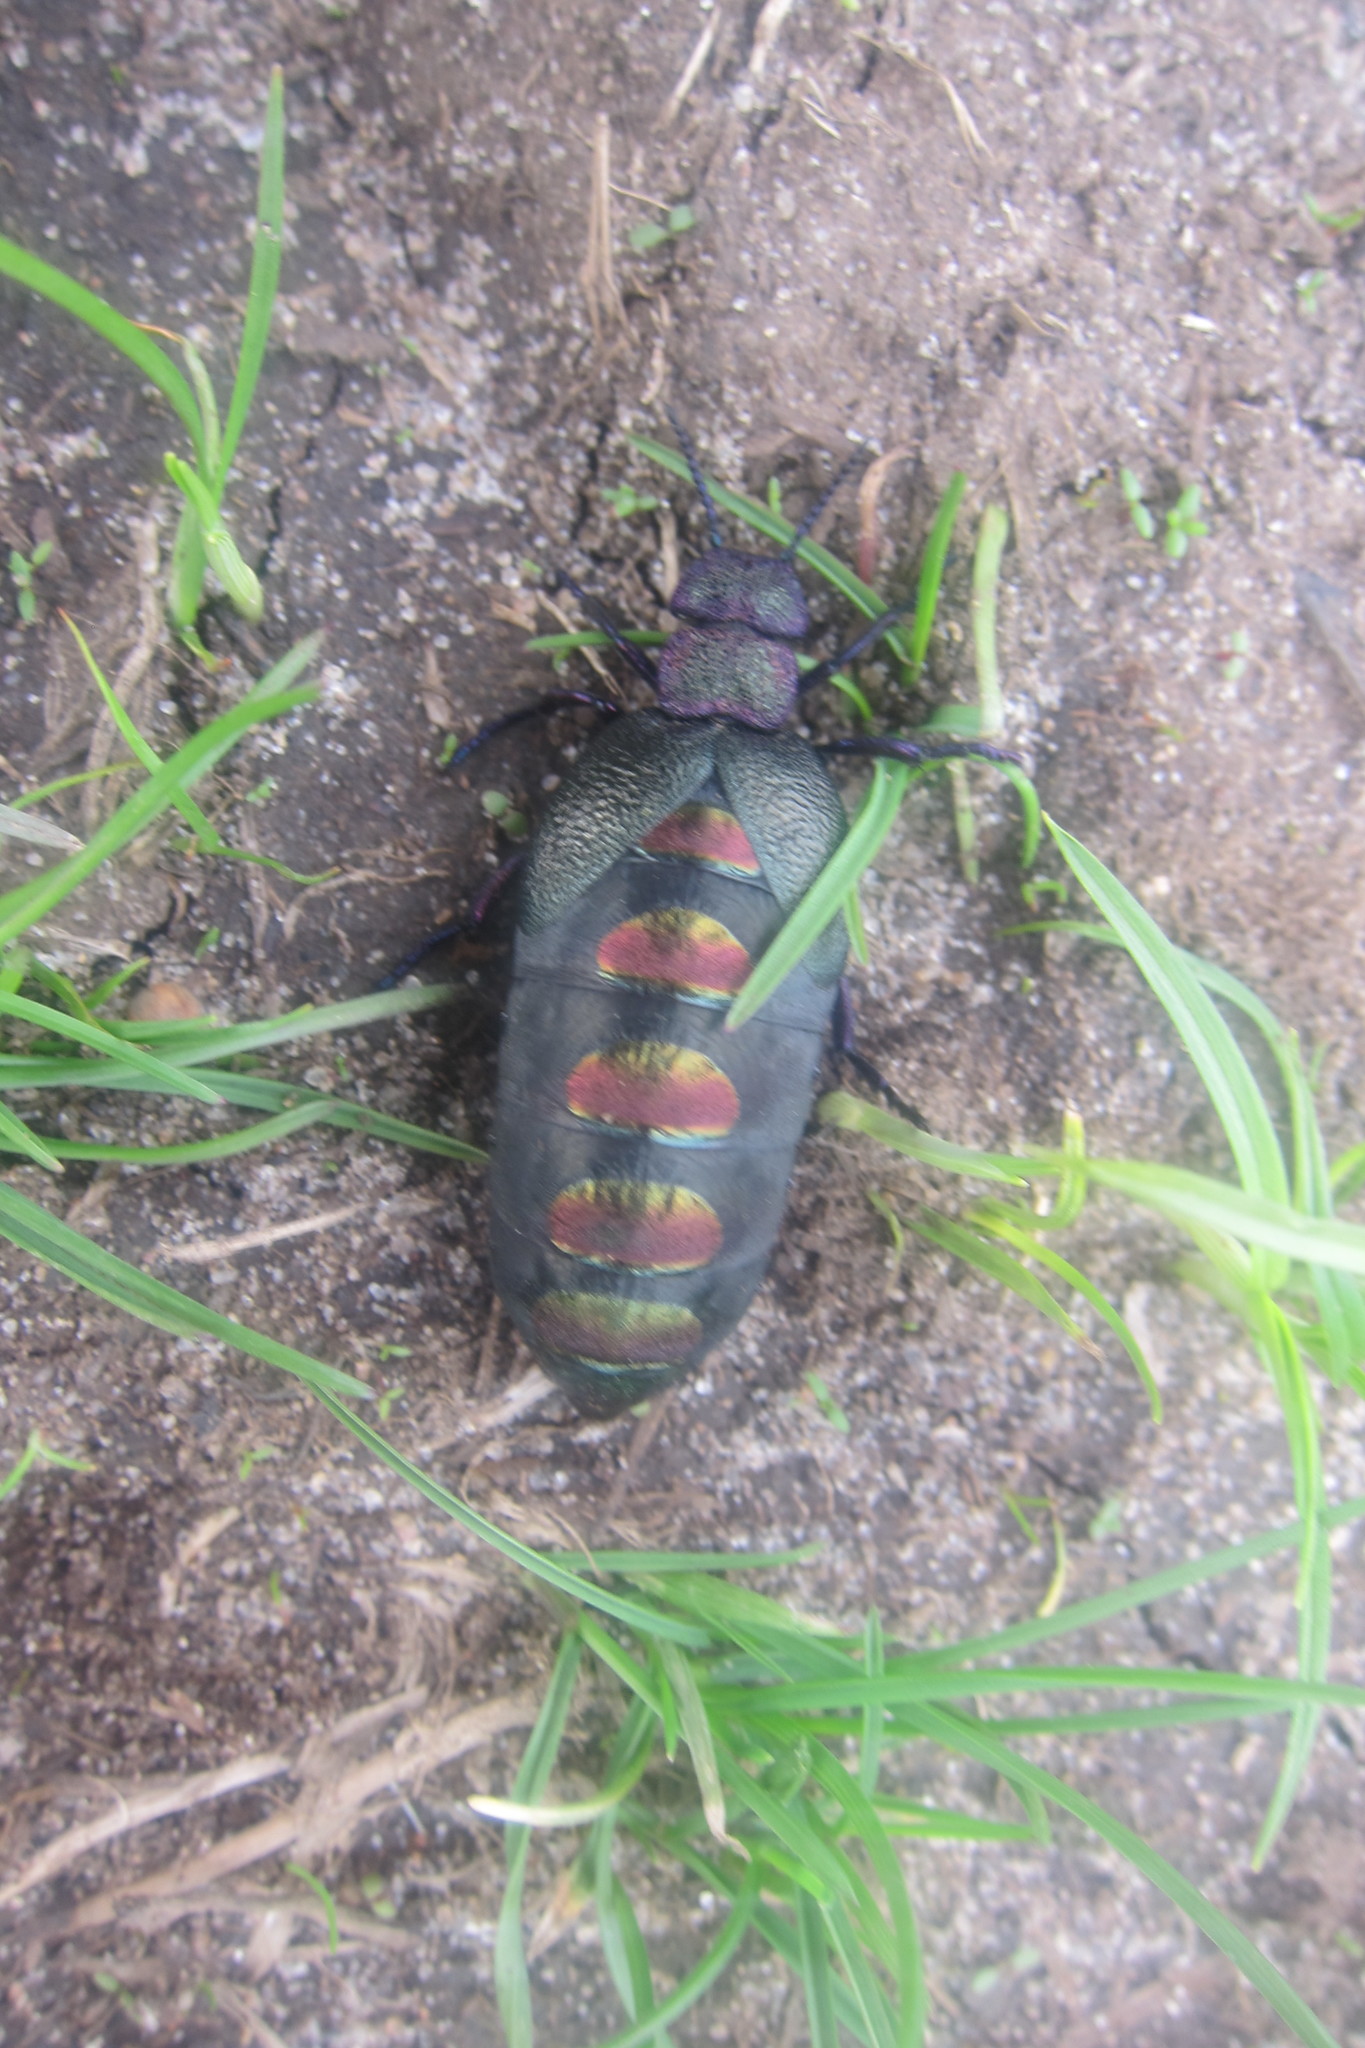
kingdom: Animalia
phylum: Arthropoda
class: Insecta
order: Coleoptera
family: Meloidae
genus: Meloe
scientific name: Meloe variegatus
